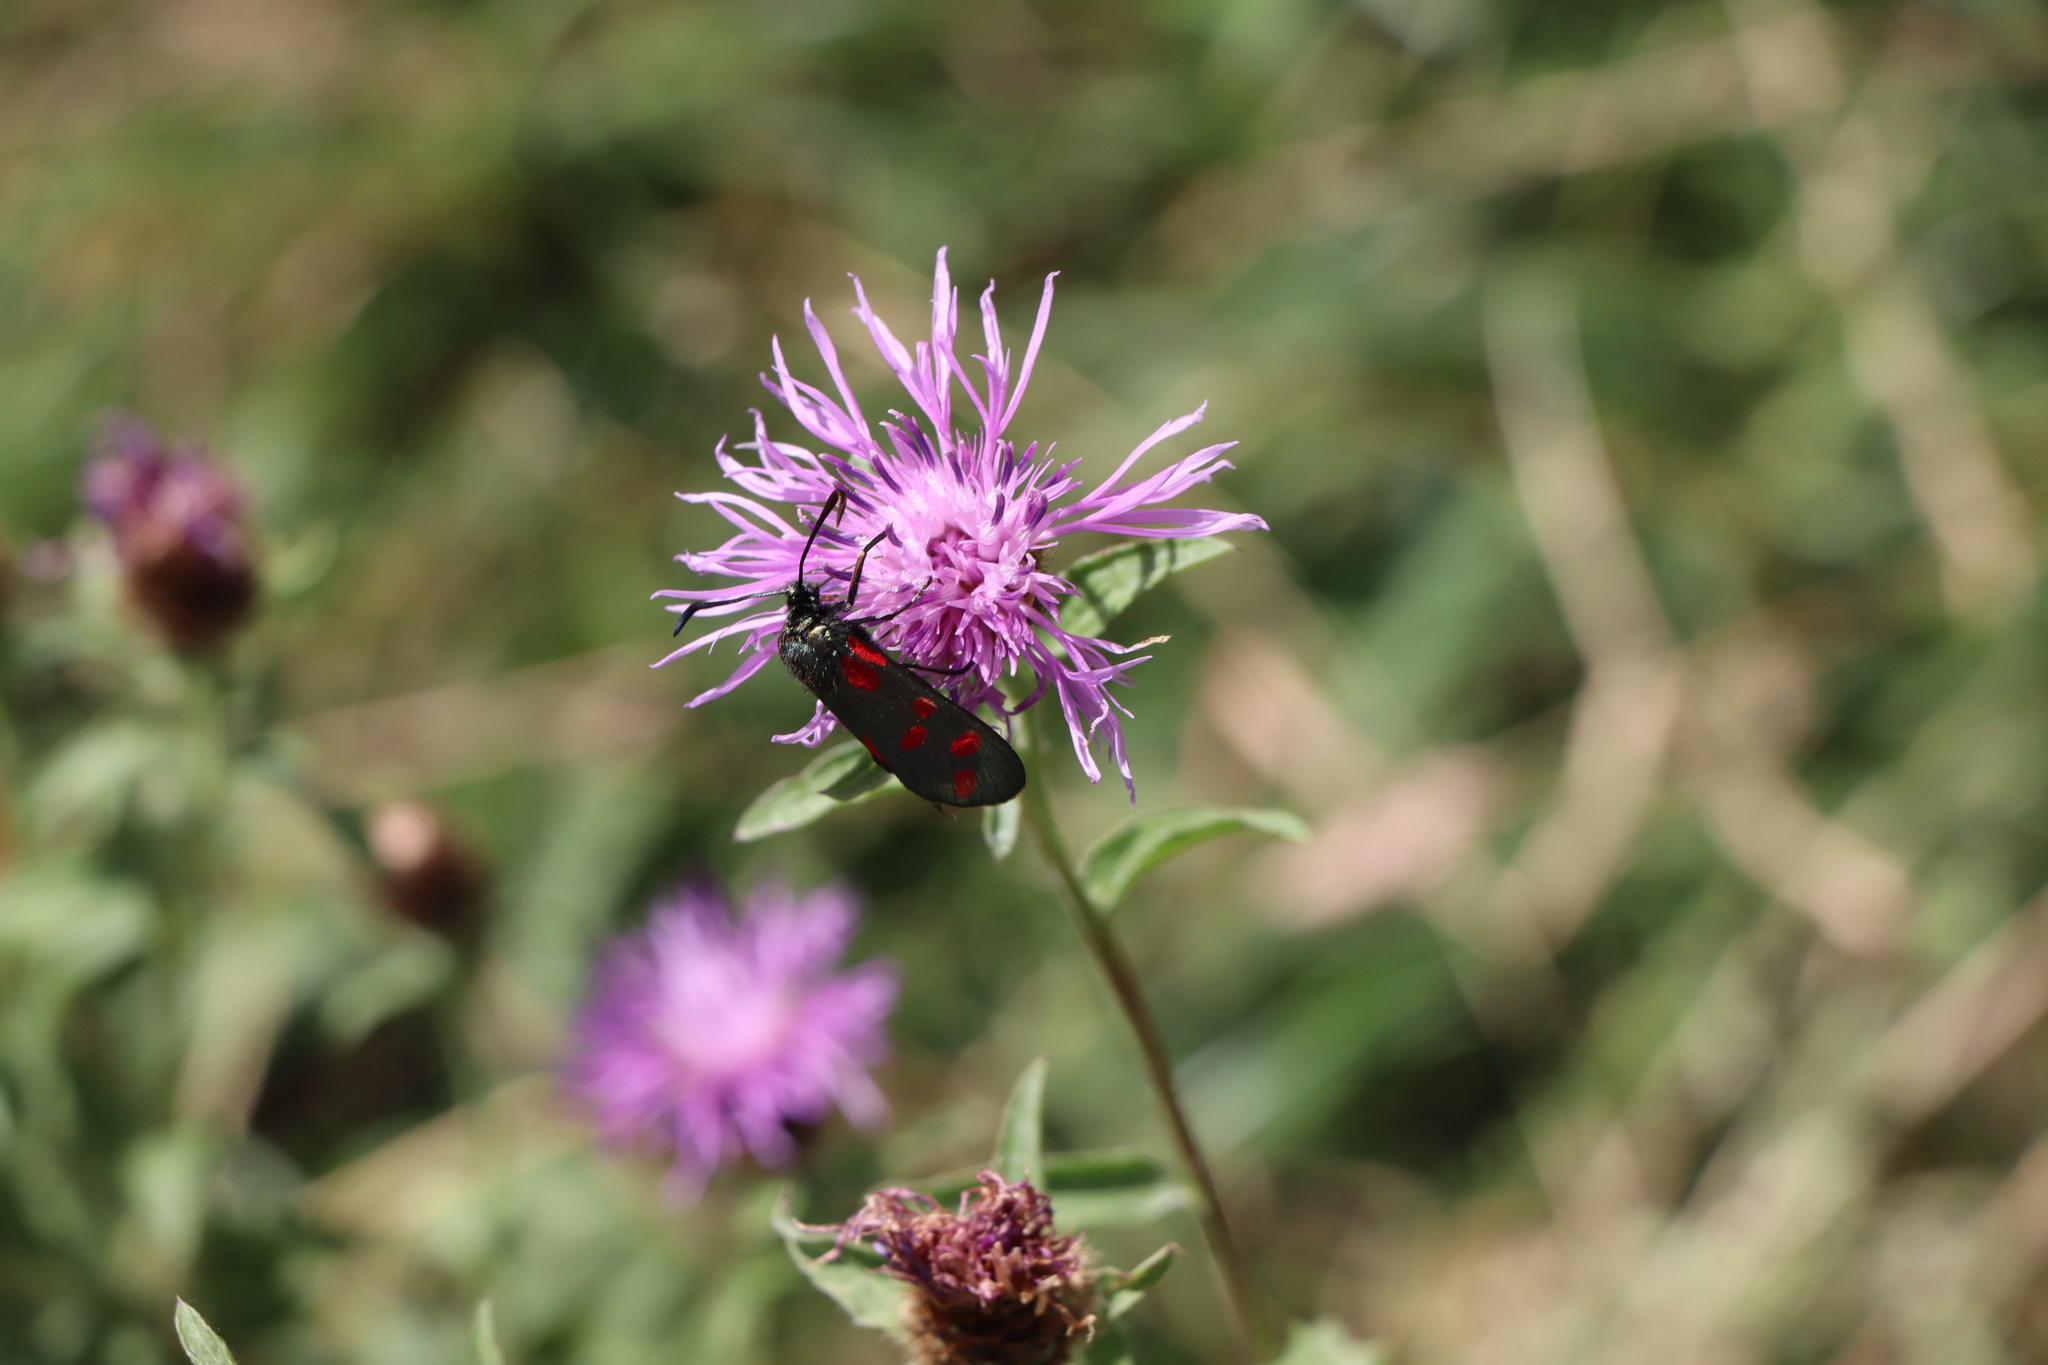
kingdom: Animalia
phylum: Arthropoda
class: Insecta
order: Lepidoptera
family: Zygaenidae
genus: Zygaena
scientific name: Zygaena filipendulae
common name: Six-spot burnet
